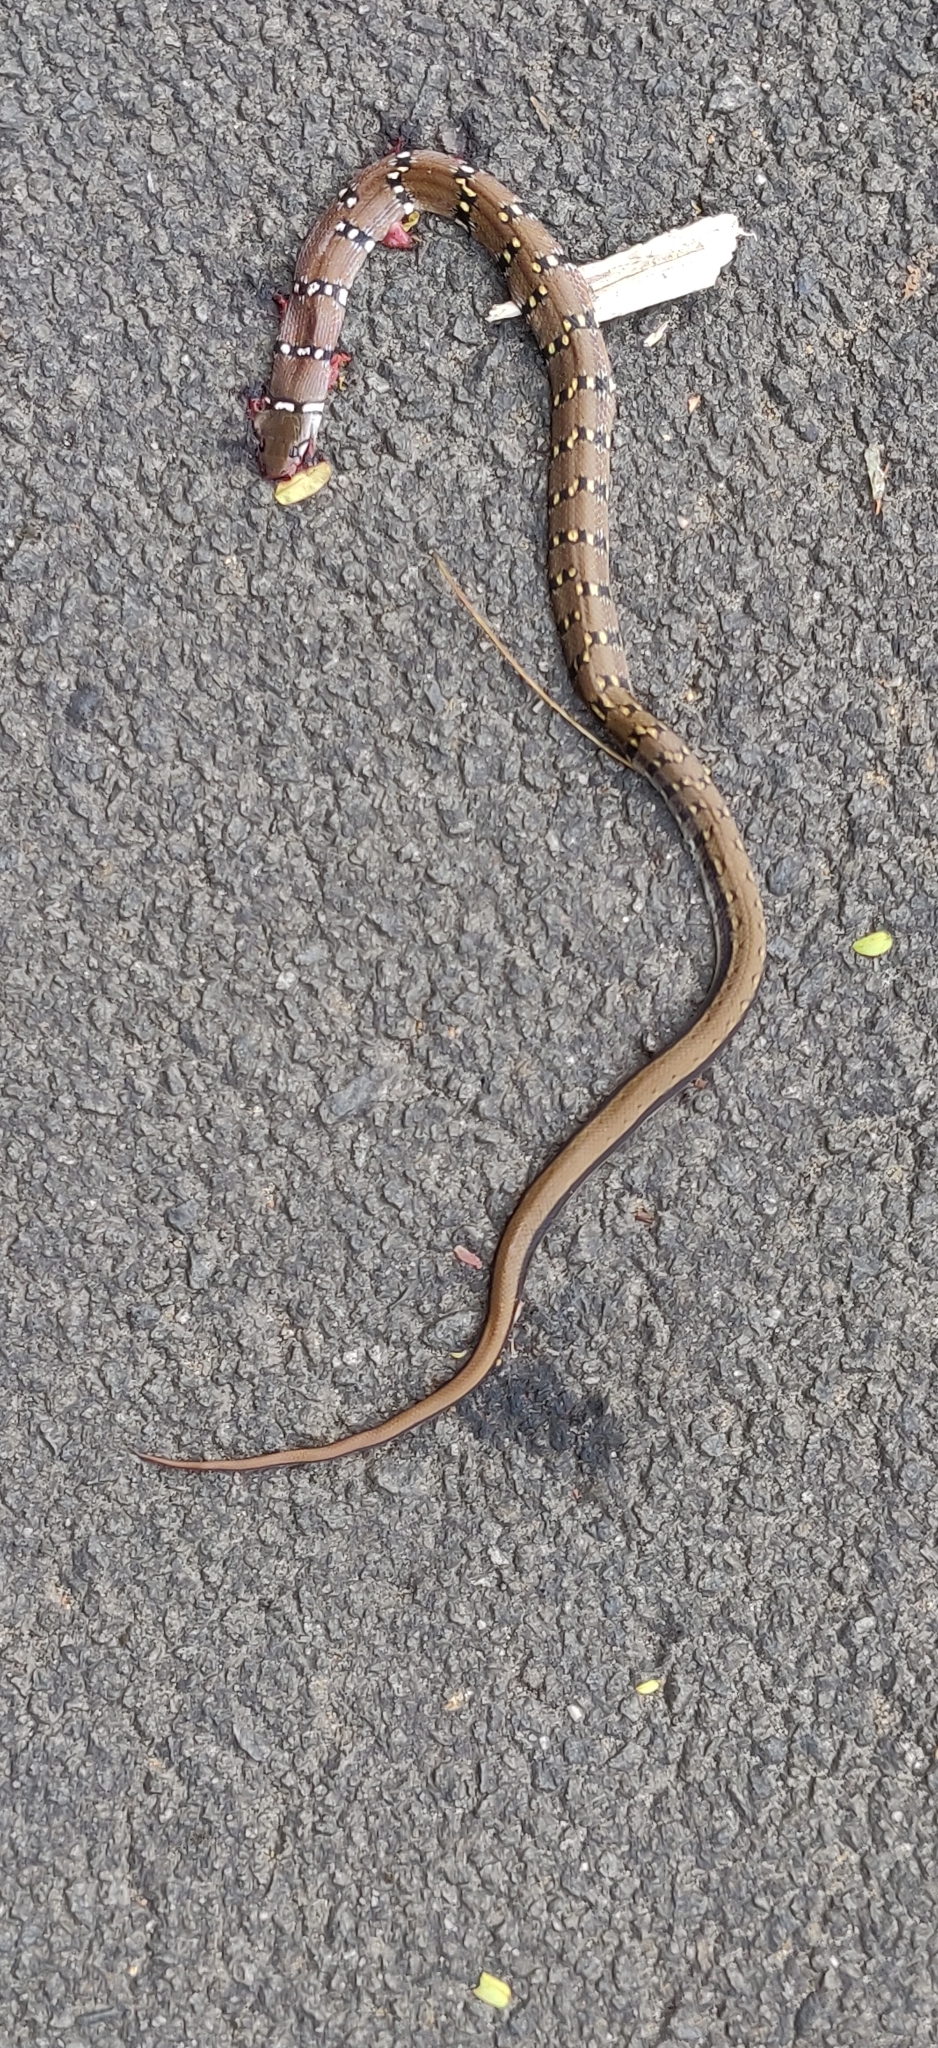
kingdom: Animalia
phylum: Chordata
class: Squamata
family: Colubridae
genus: Coelognathus
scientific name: Coelognathus helena
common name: Trinket snake
